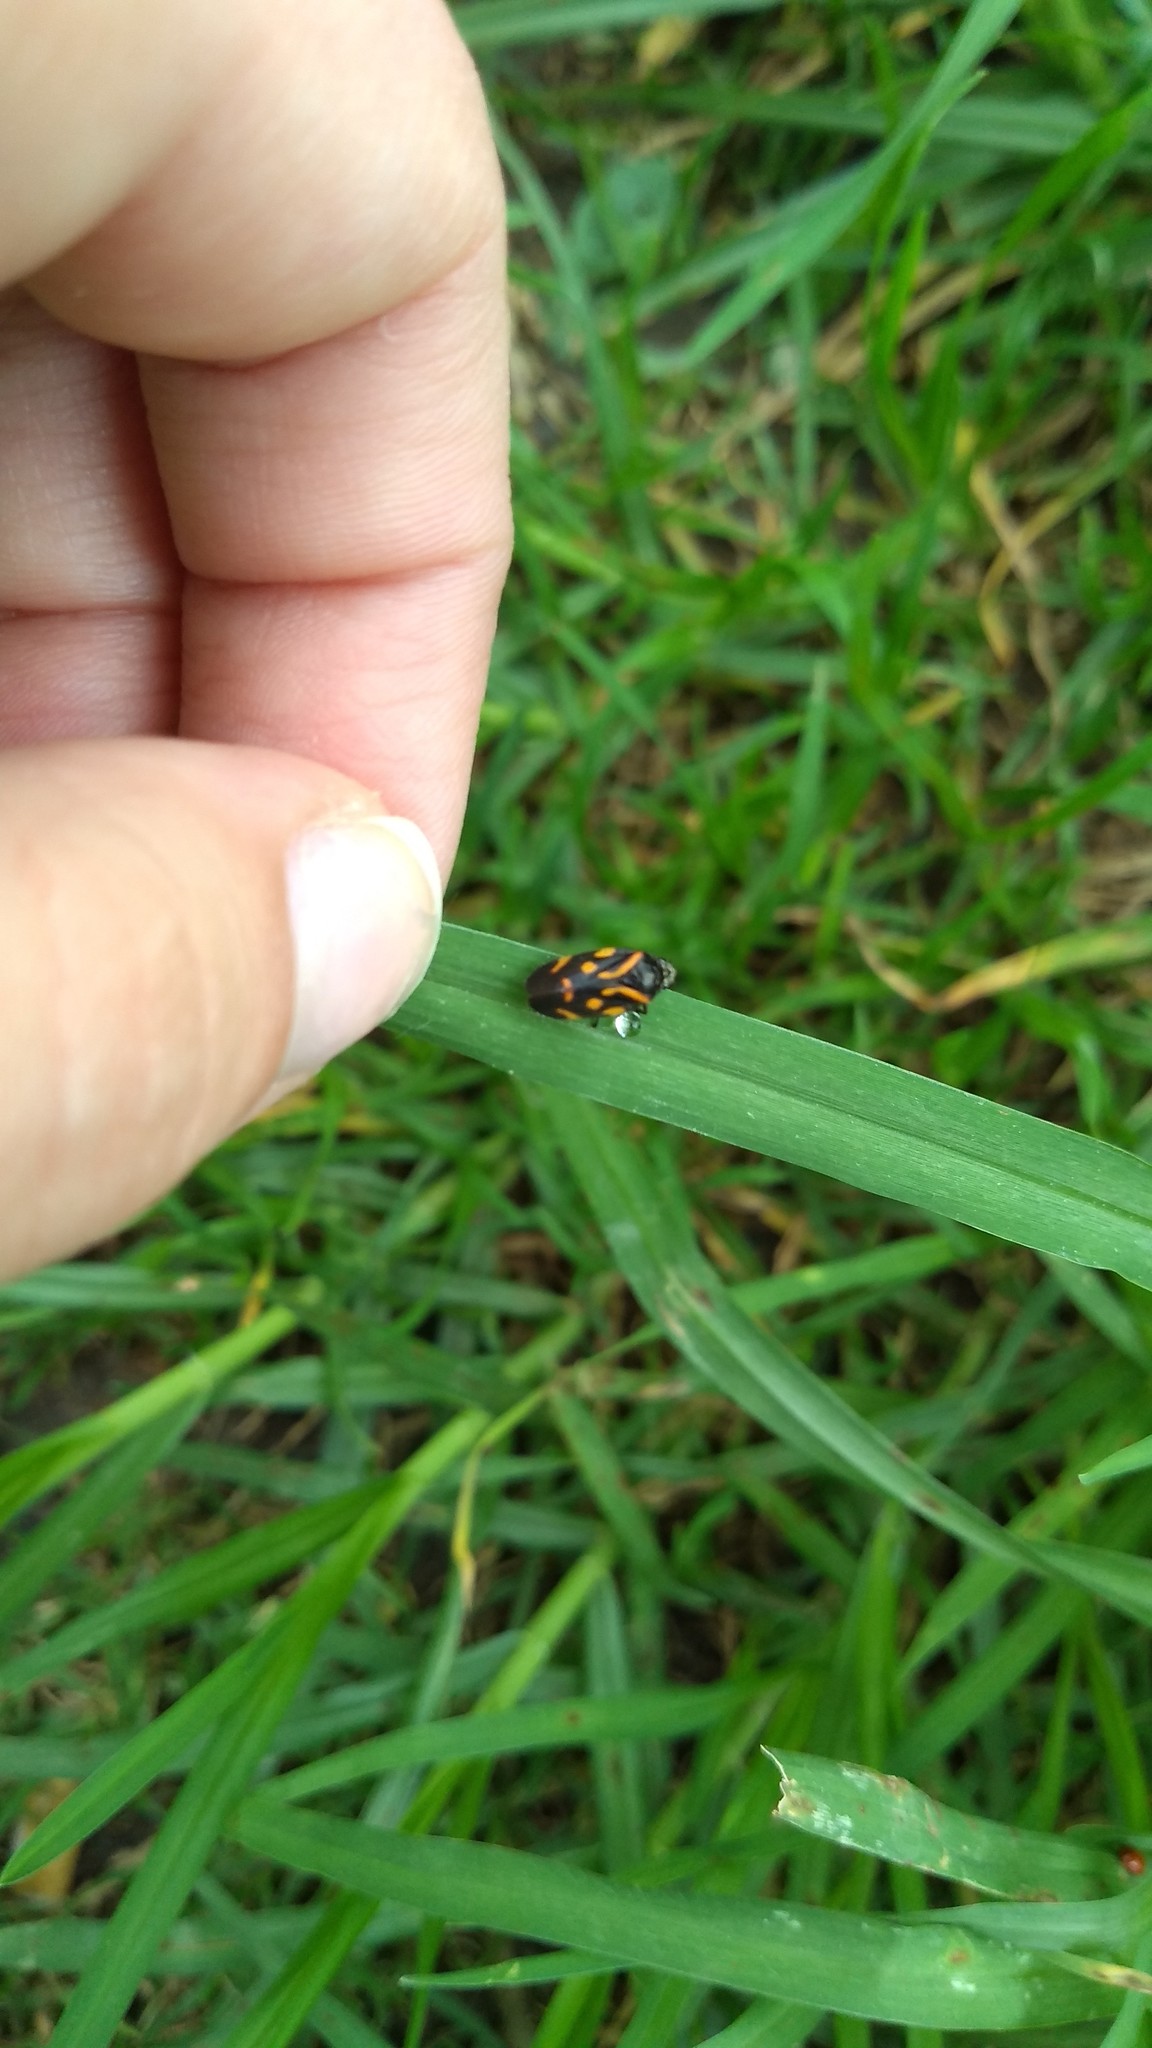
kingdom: Animalia
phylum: Arthropoda
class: Insecta
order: Hemiptera
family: Cercopidae
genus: Isozulia
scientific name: Isozulia christenseni
